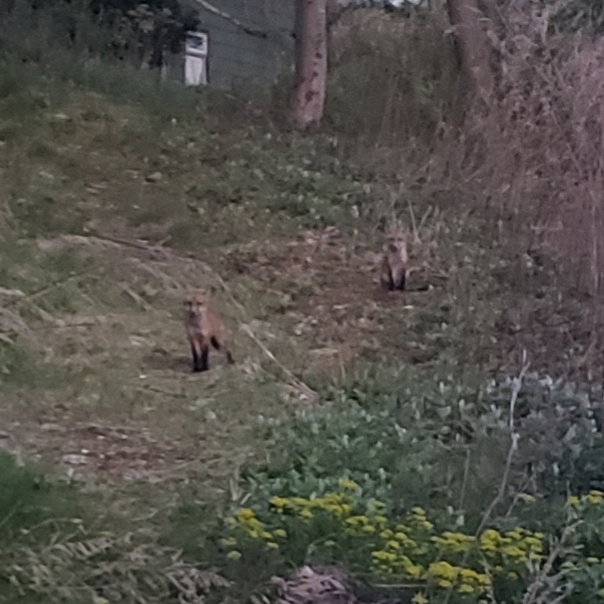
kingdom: Animalia
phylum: Chordata
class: Mammalia
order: Carnivora
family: Canidae
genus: Vulpes
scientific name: Vulpes vulpes
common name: Red fox
